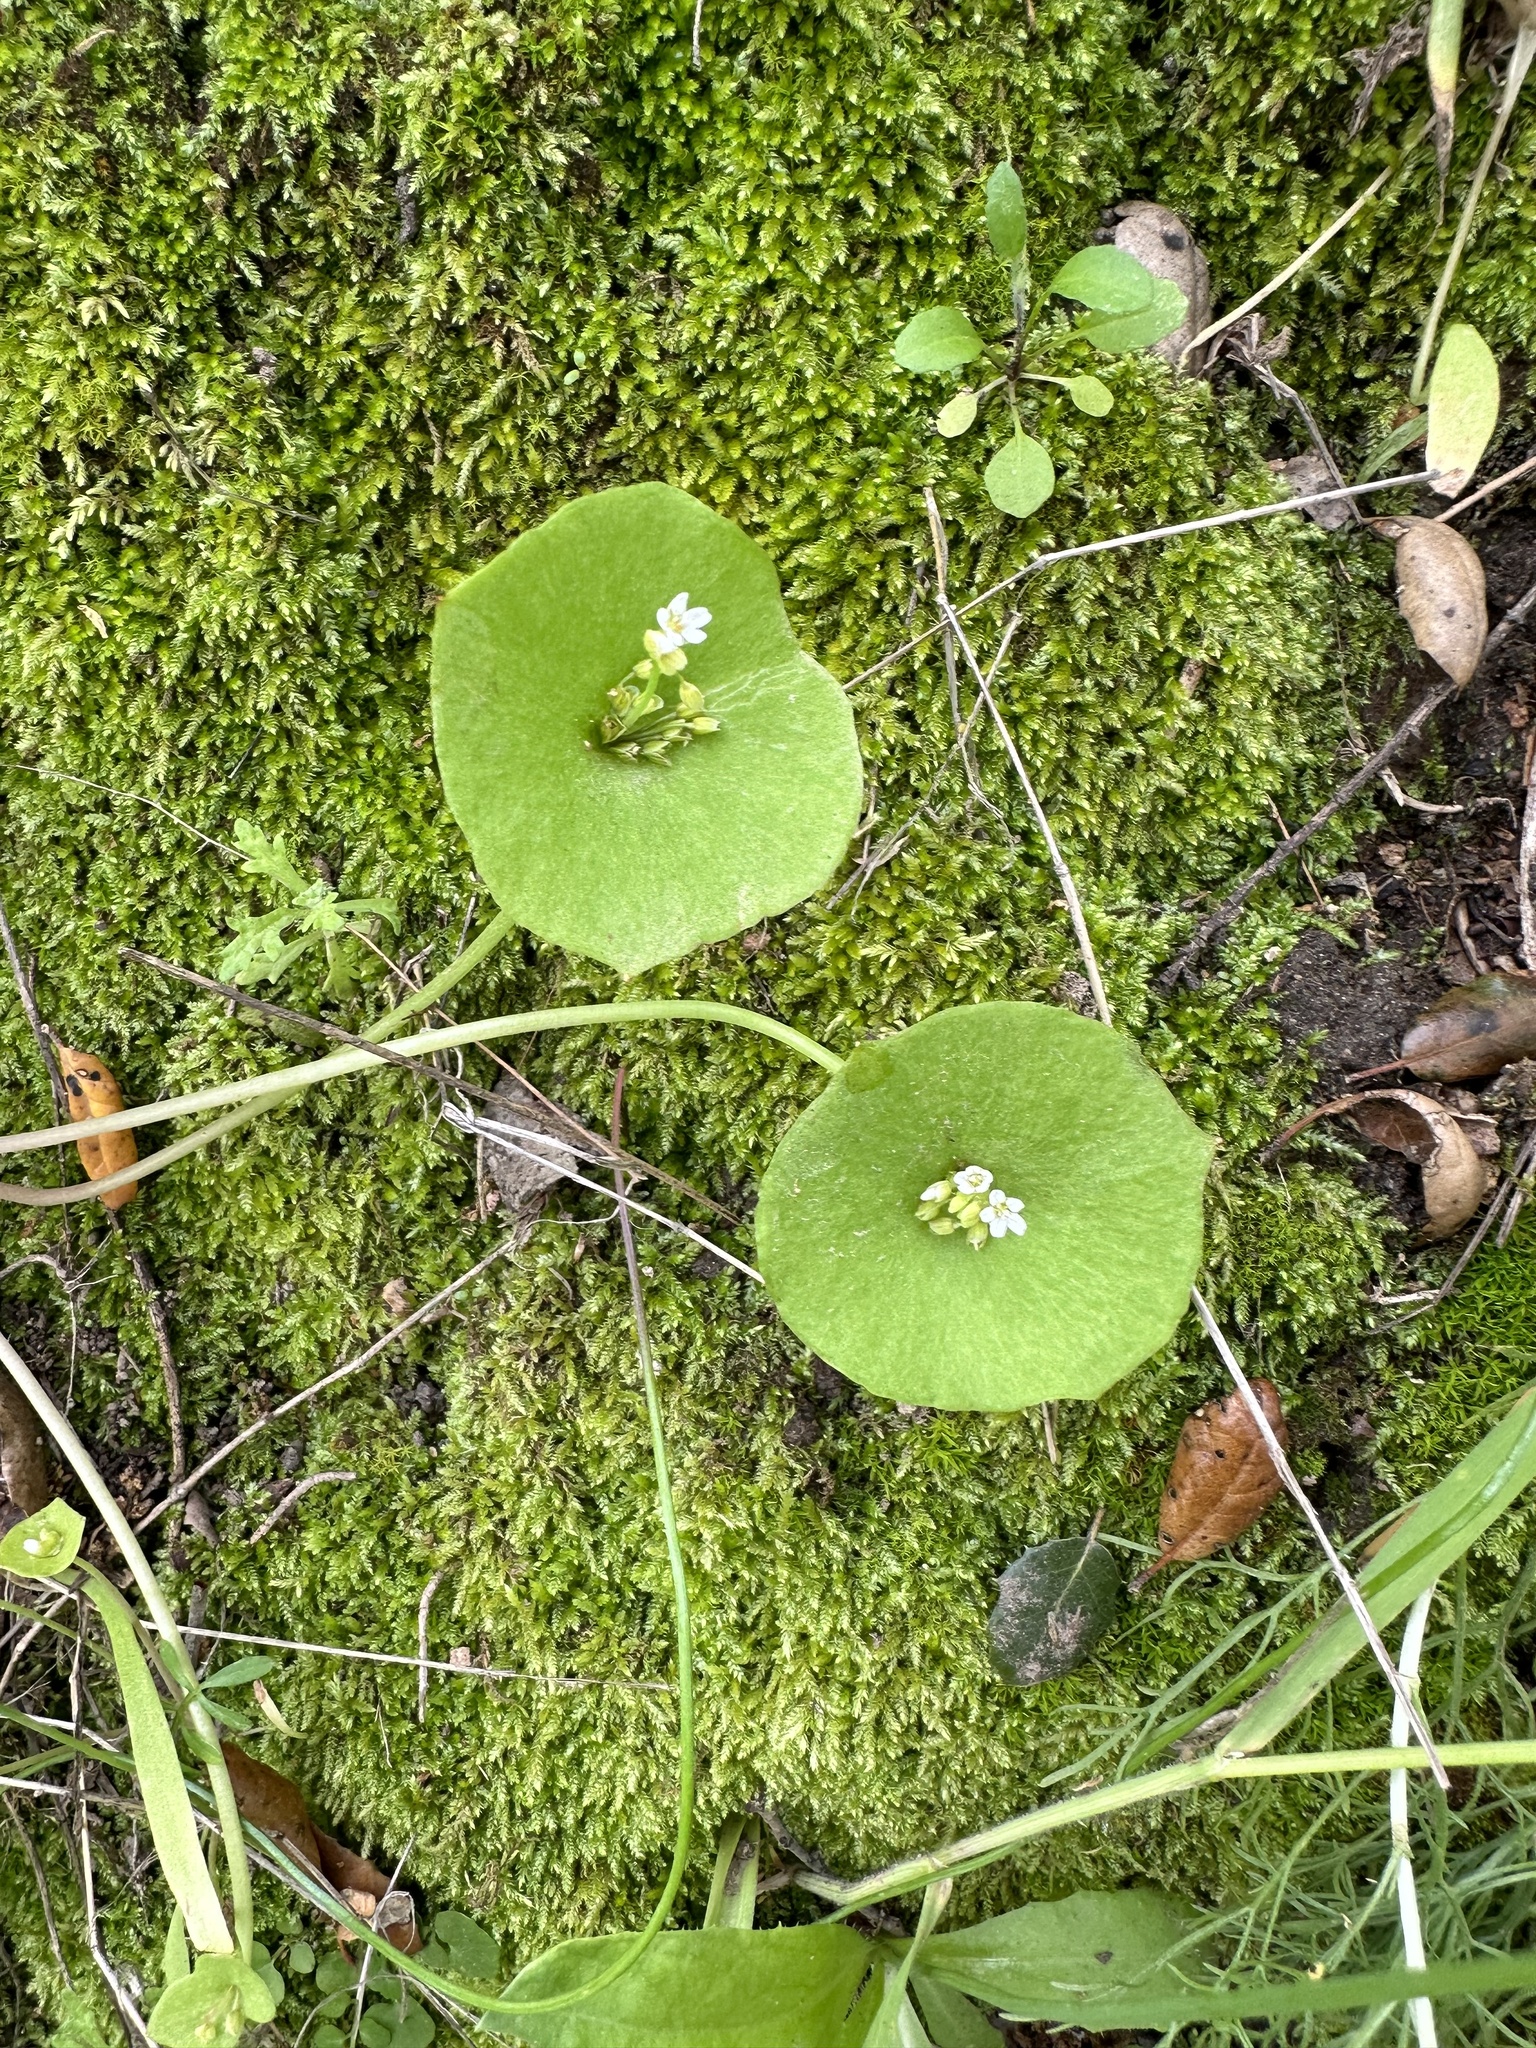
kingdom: Plantae
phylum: Tracheophyta
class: Magnoliopsida
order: Caryophyllales
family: Montiaceae
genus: Claytonia
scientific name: Claytonia perfoliata
